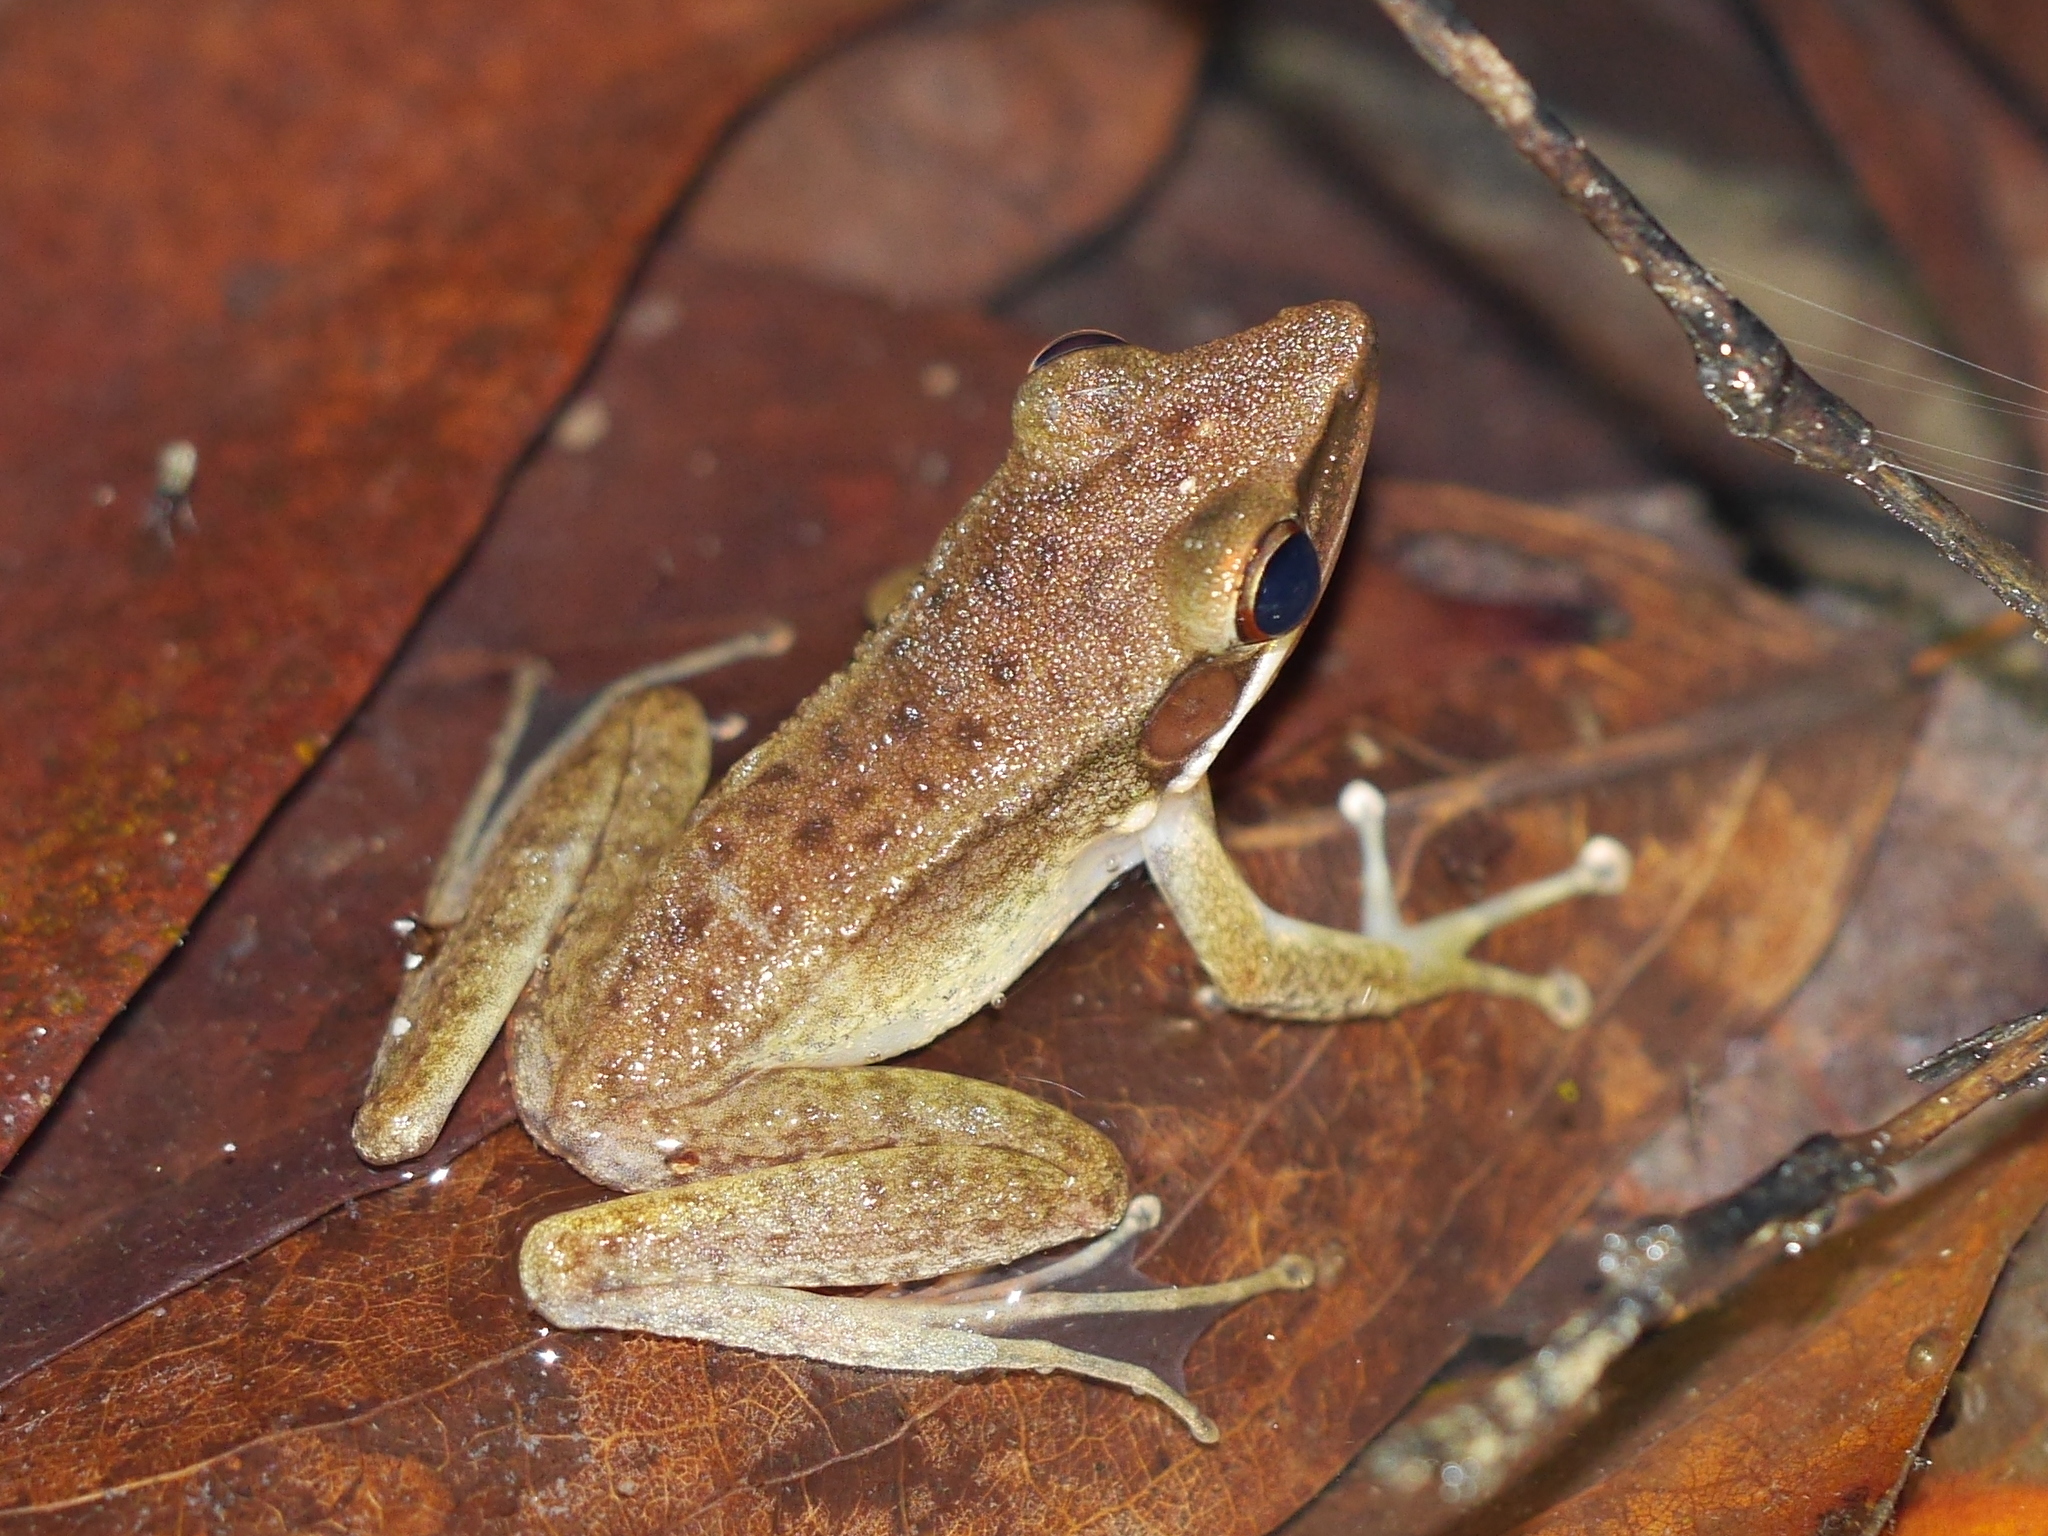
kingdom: Animalia
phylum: Chordata
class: Amphibia
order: Anura
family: Ranidae
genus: Chalcorana
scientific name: Chalcorana chalconota
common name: Schlegel's frog
